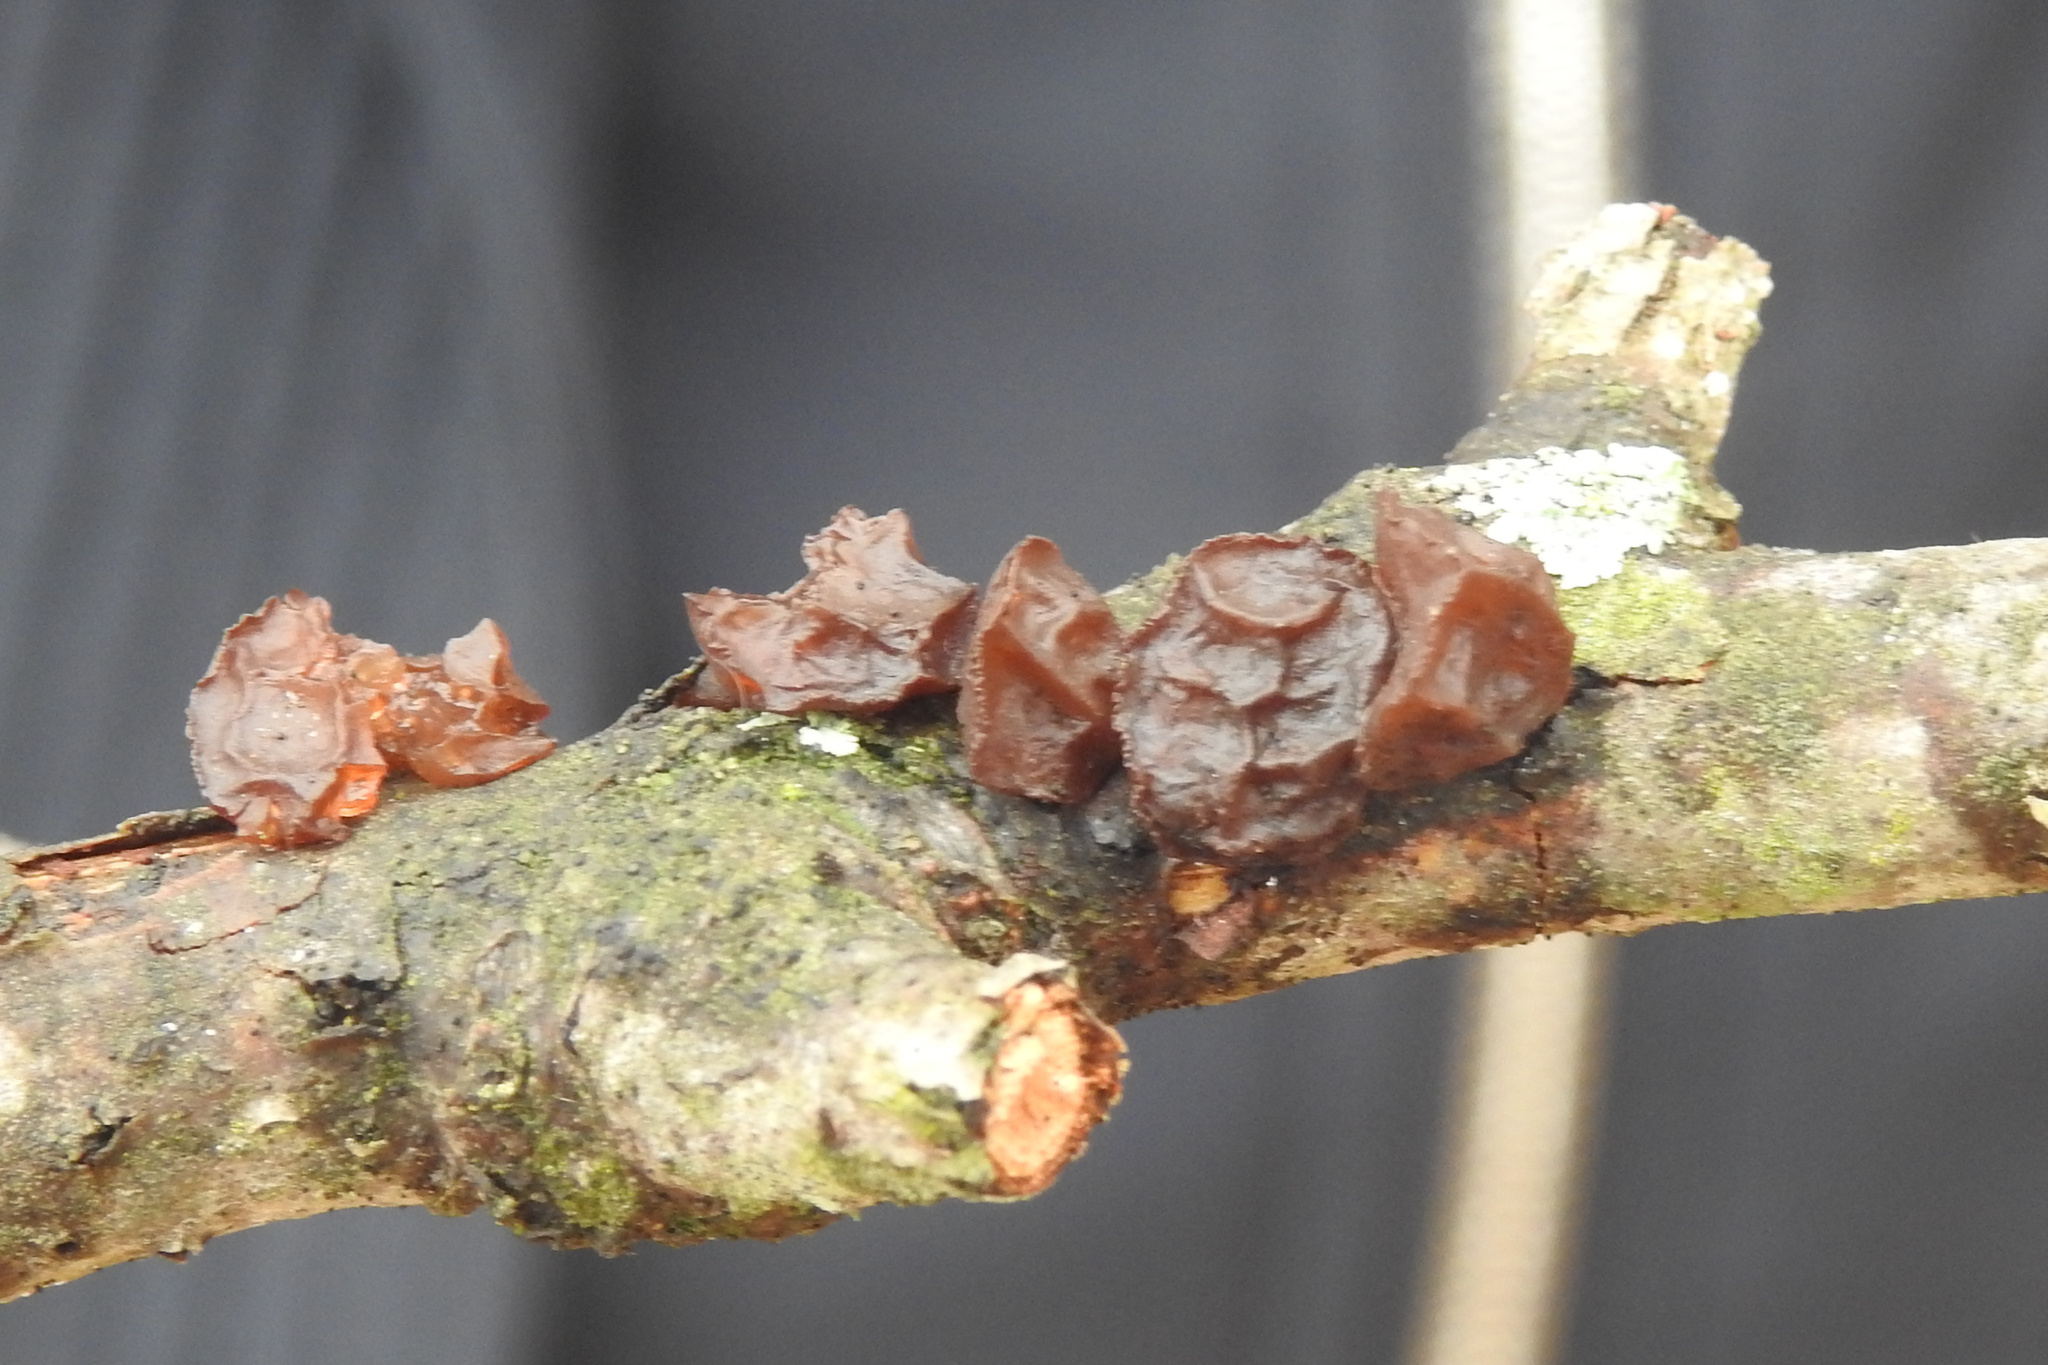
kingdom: Fungi
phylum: Basidiomycota
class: Agaricomycetes
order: Auriculariales
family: Auriculariaceae
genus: Exidia
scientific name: Exidia
